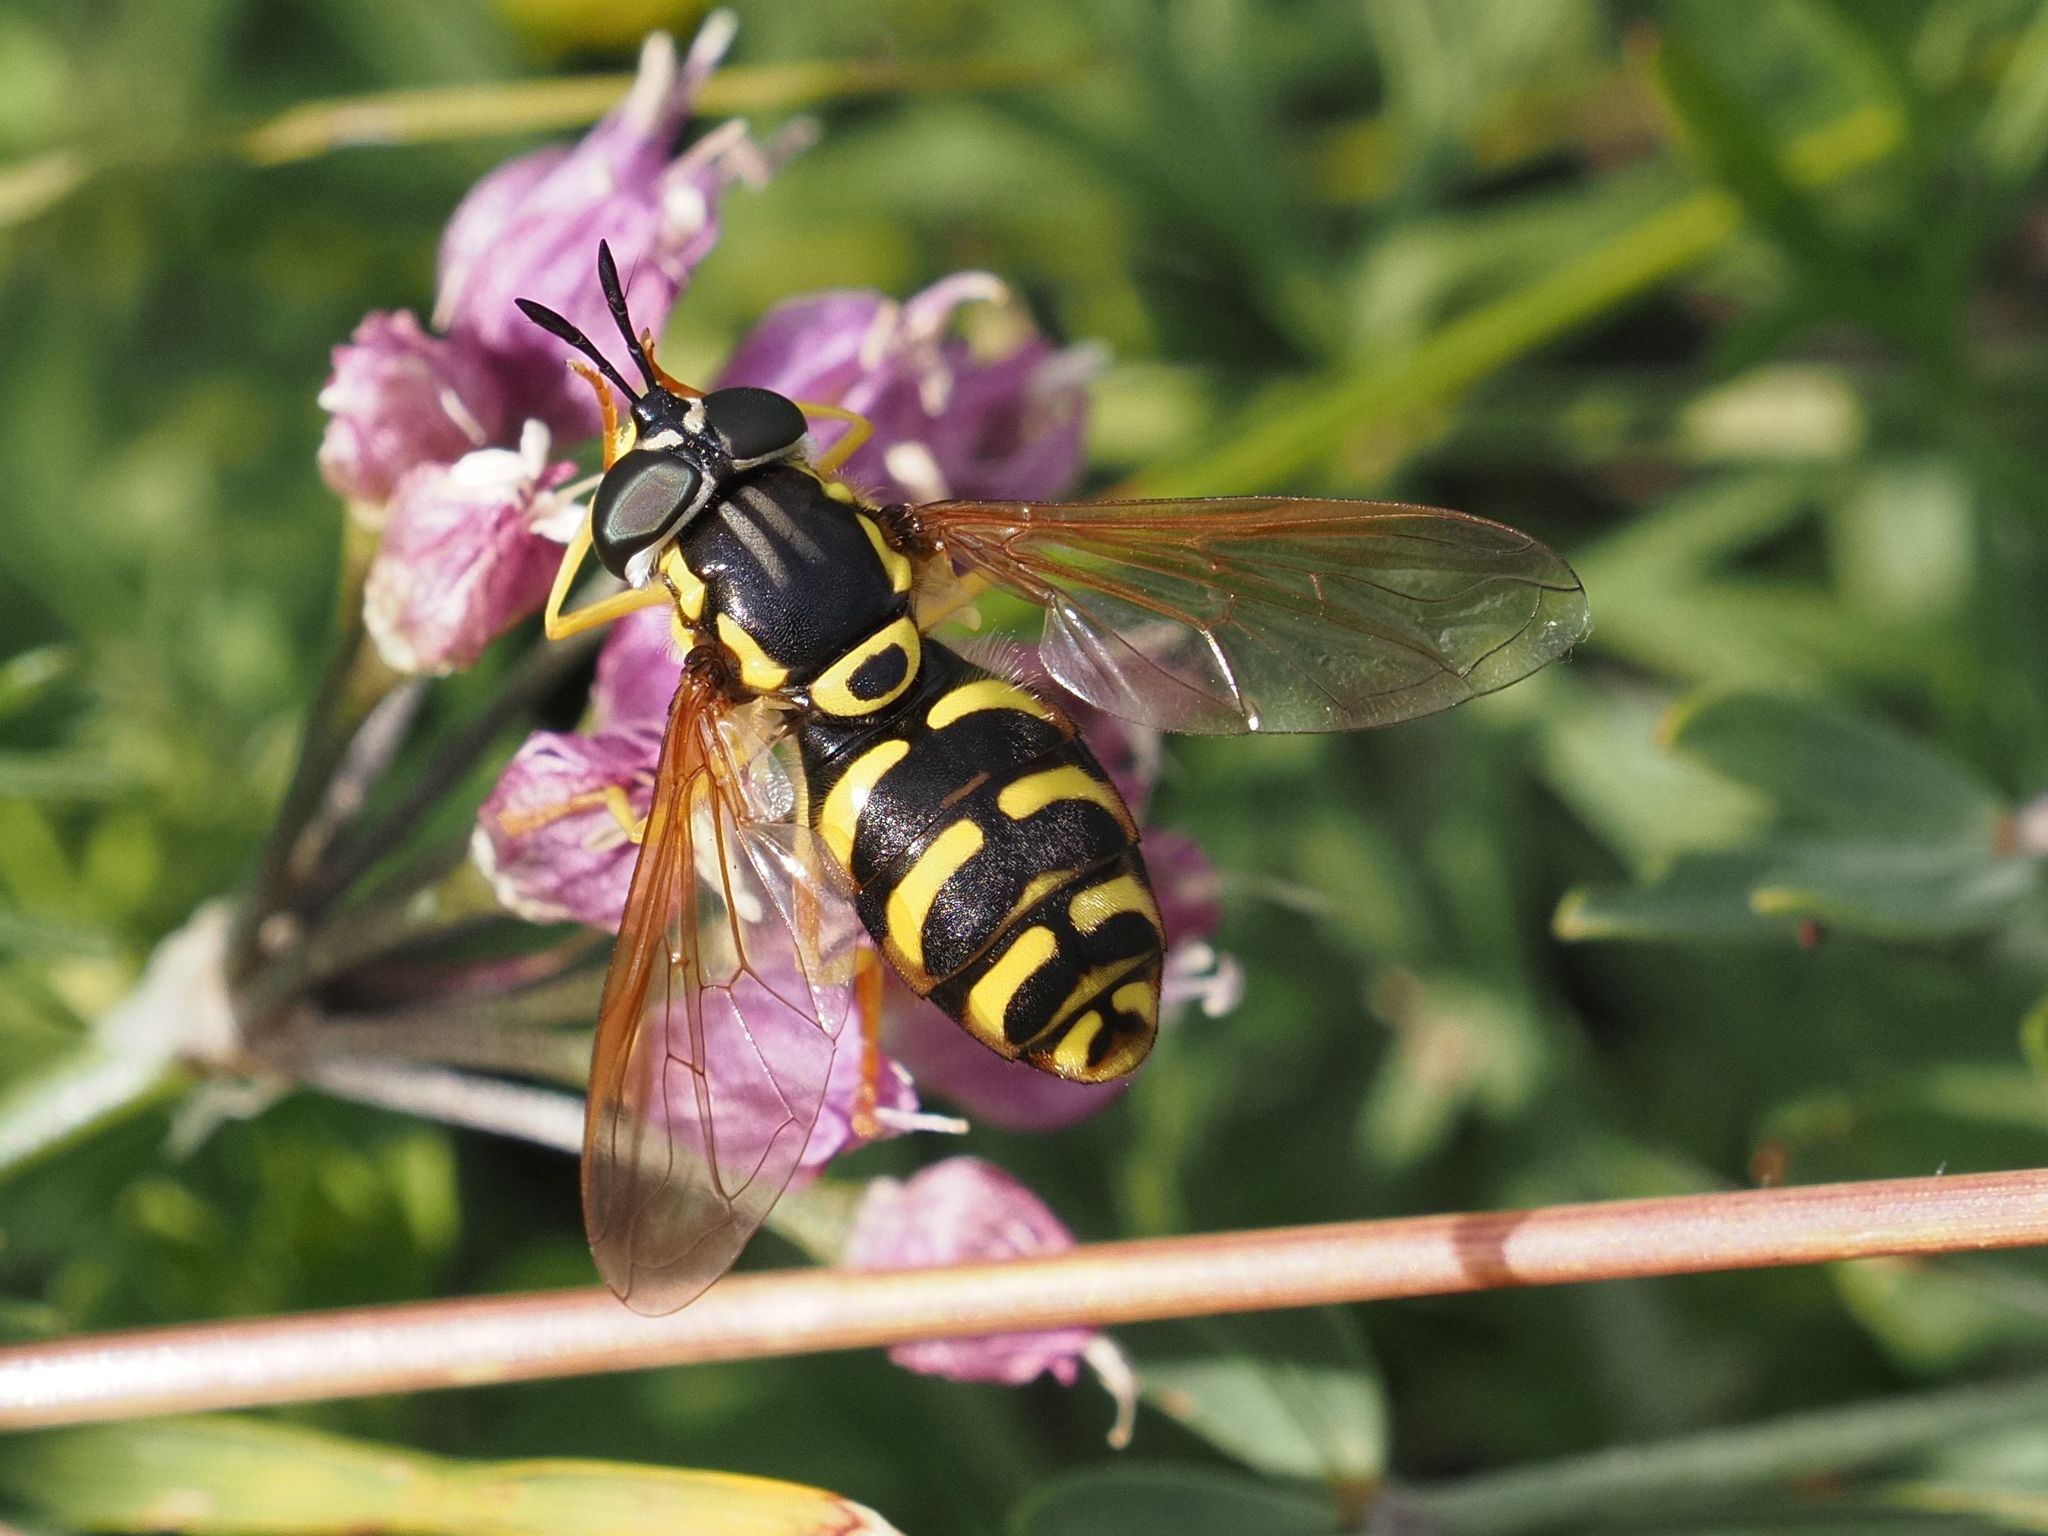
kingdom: Animalia
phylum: Arthropoda
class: Insecta
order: Diptera
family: Syrphidae
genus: Chrysotoxum
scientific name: Chrysotoxum elegans
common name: Zipperback
